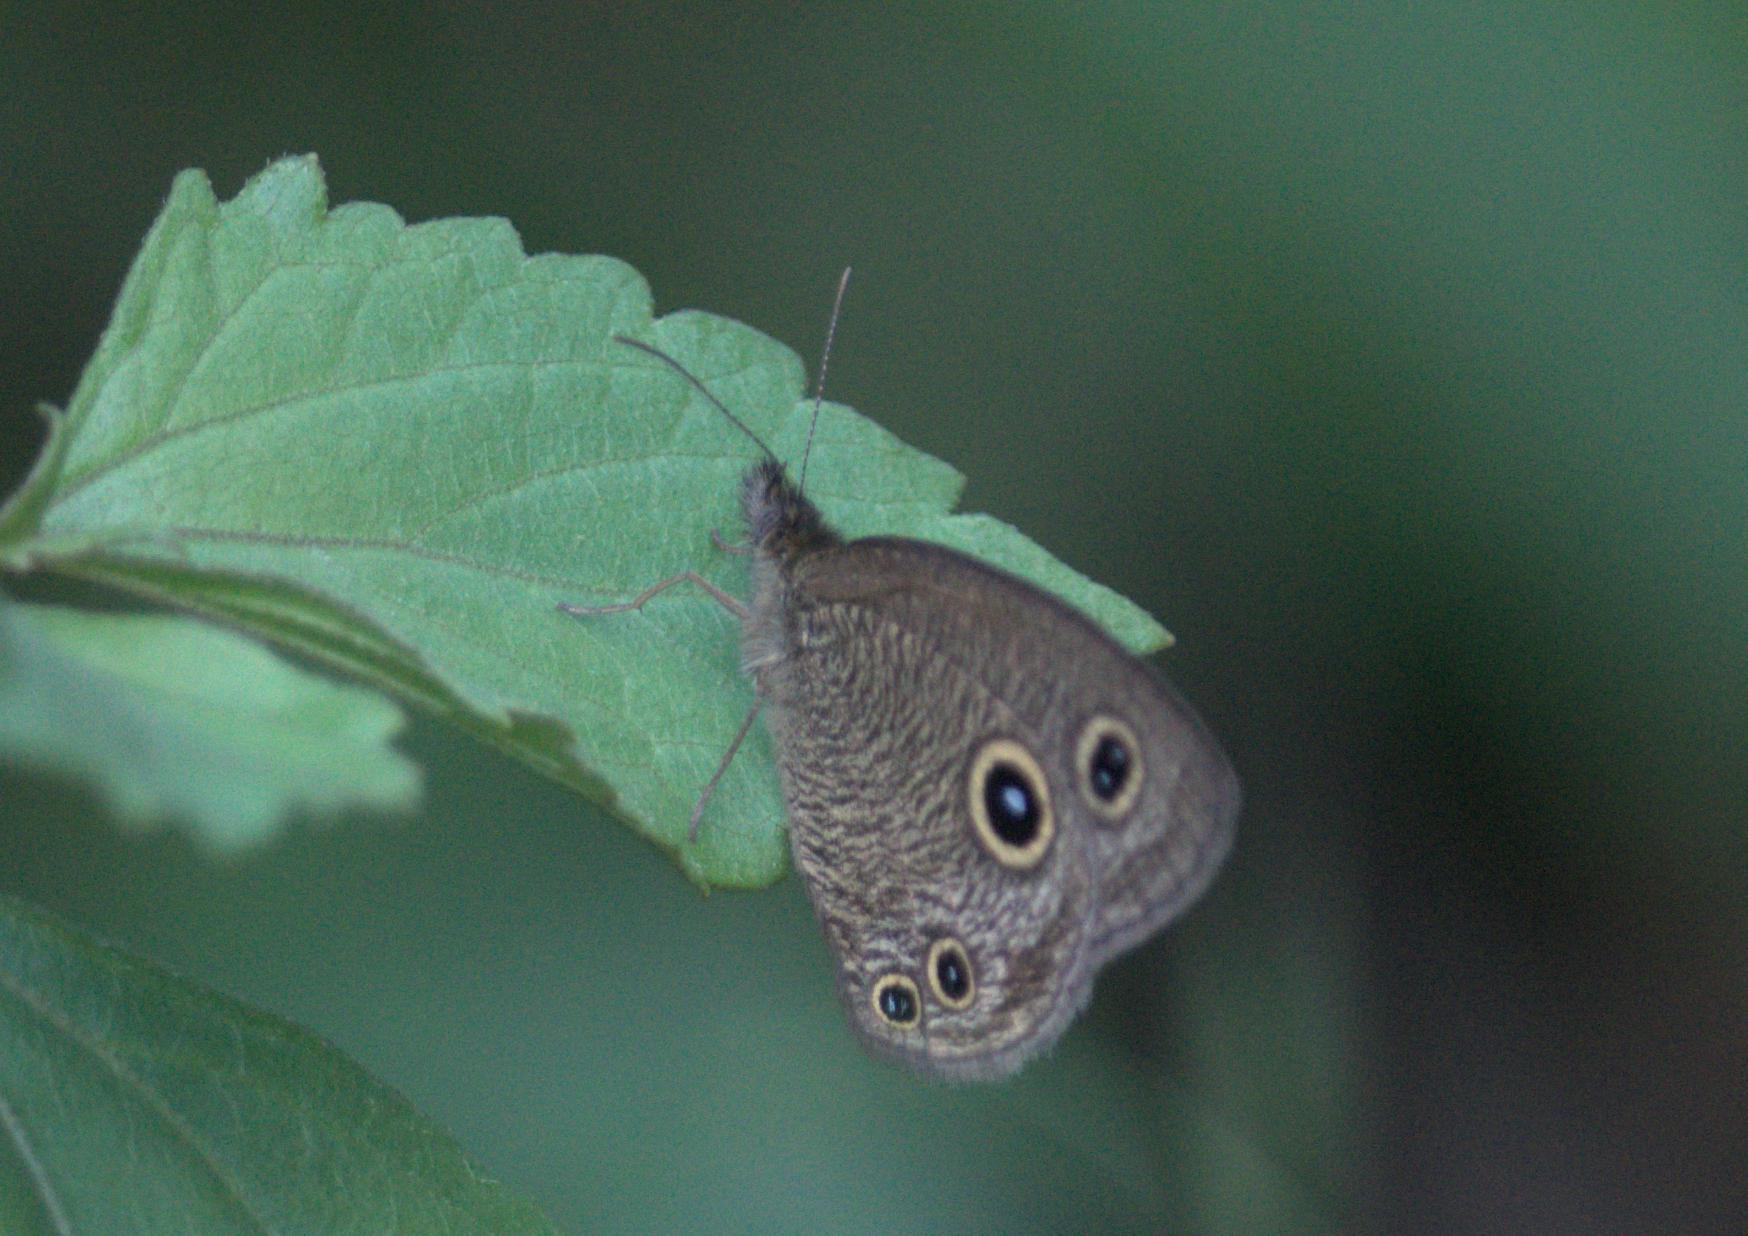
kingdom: Animalia
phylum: Arthropoda
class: Insecta
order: Lepidoptera
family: Nymphalidae
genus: Ypthima
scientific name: Ypthima nareda
